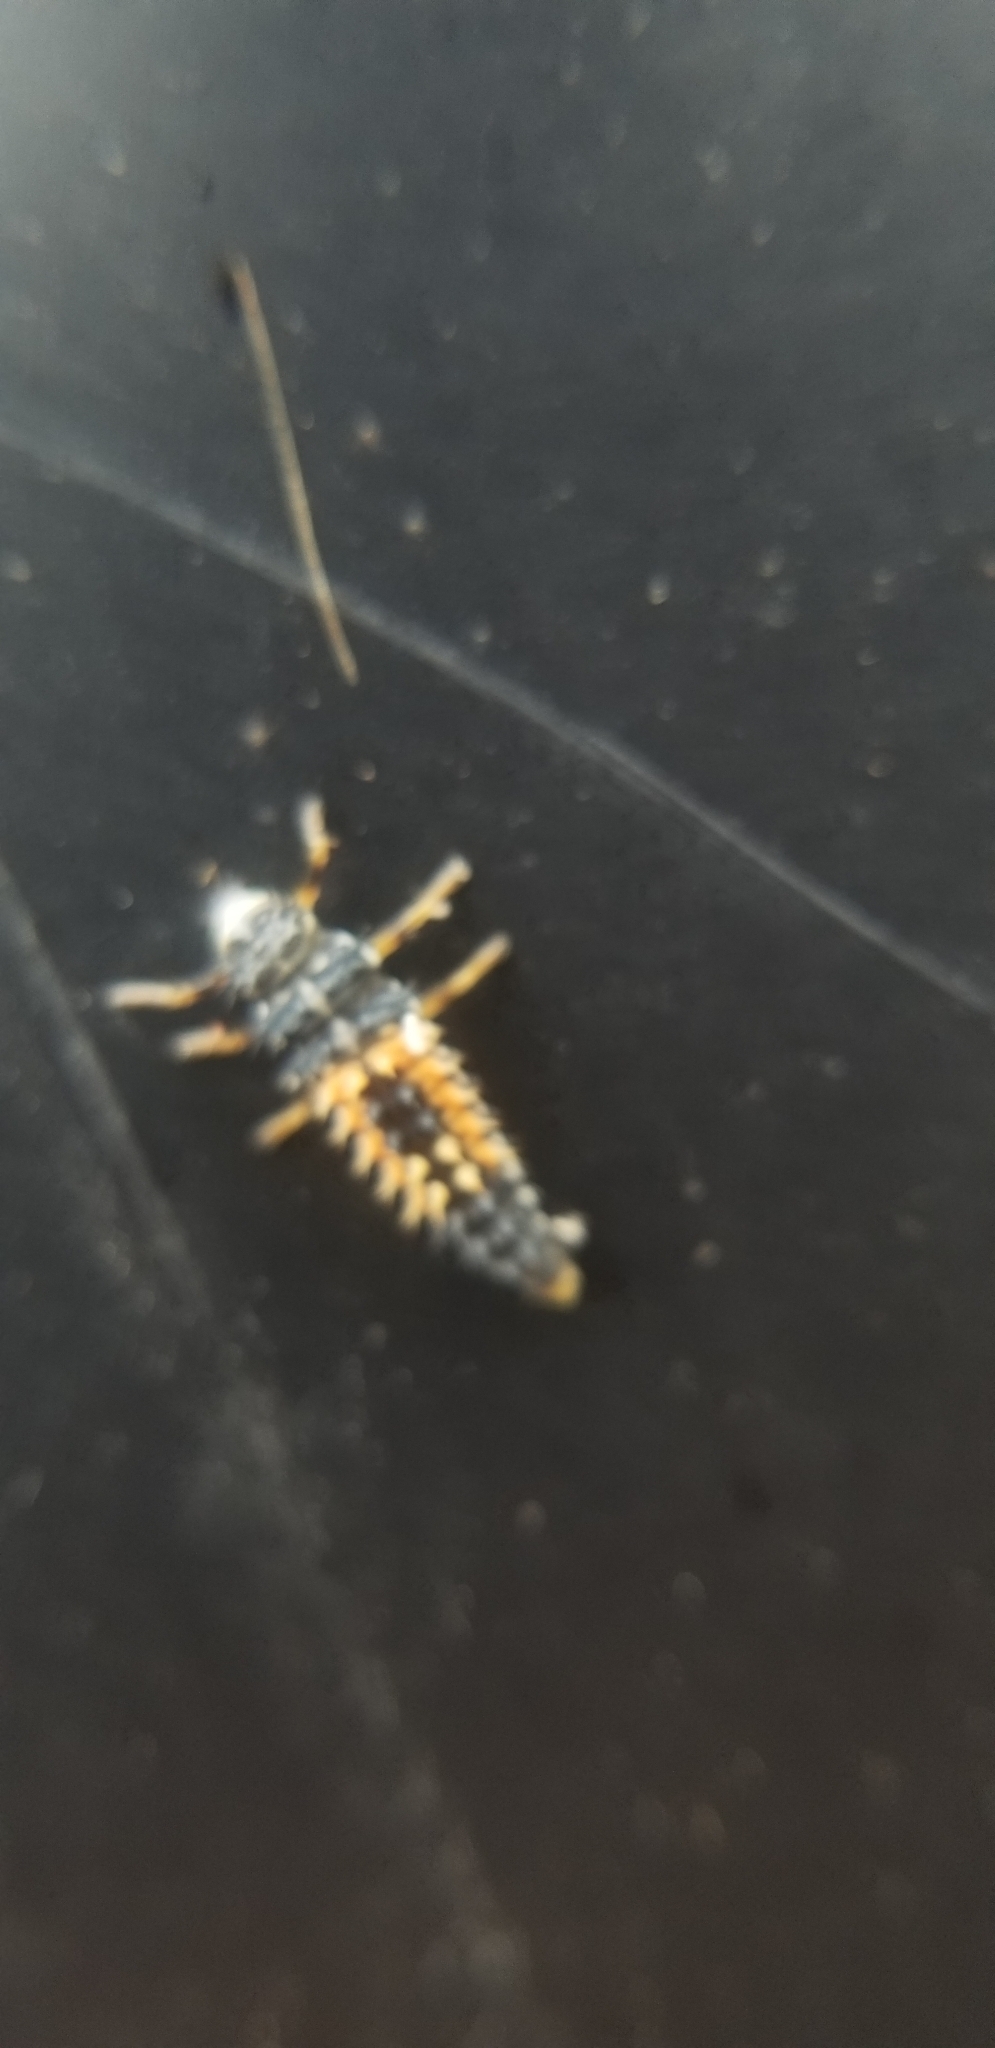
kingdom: Animalia
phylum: Arthropoda
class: Insecta
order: Coleoptera
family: Coccinellidae
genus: Harmonia
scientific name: Harmonia axyridis
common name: Harlequin ladybird
